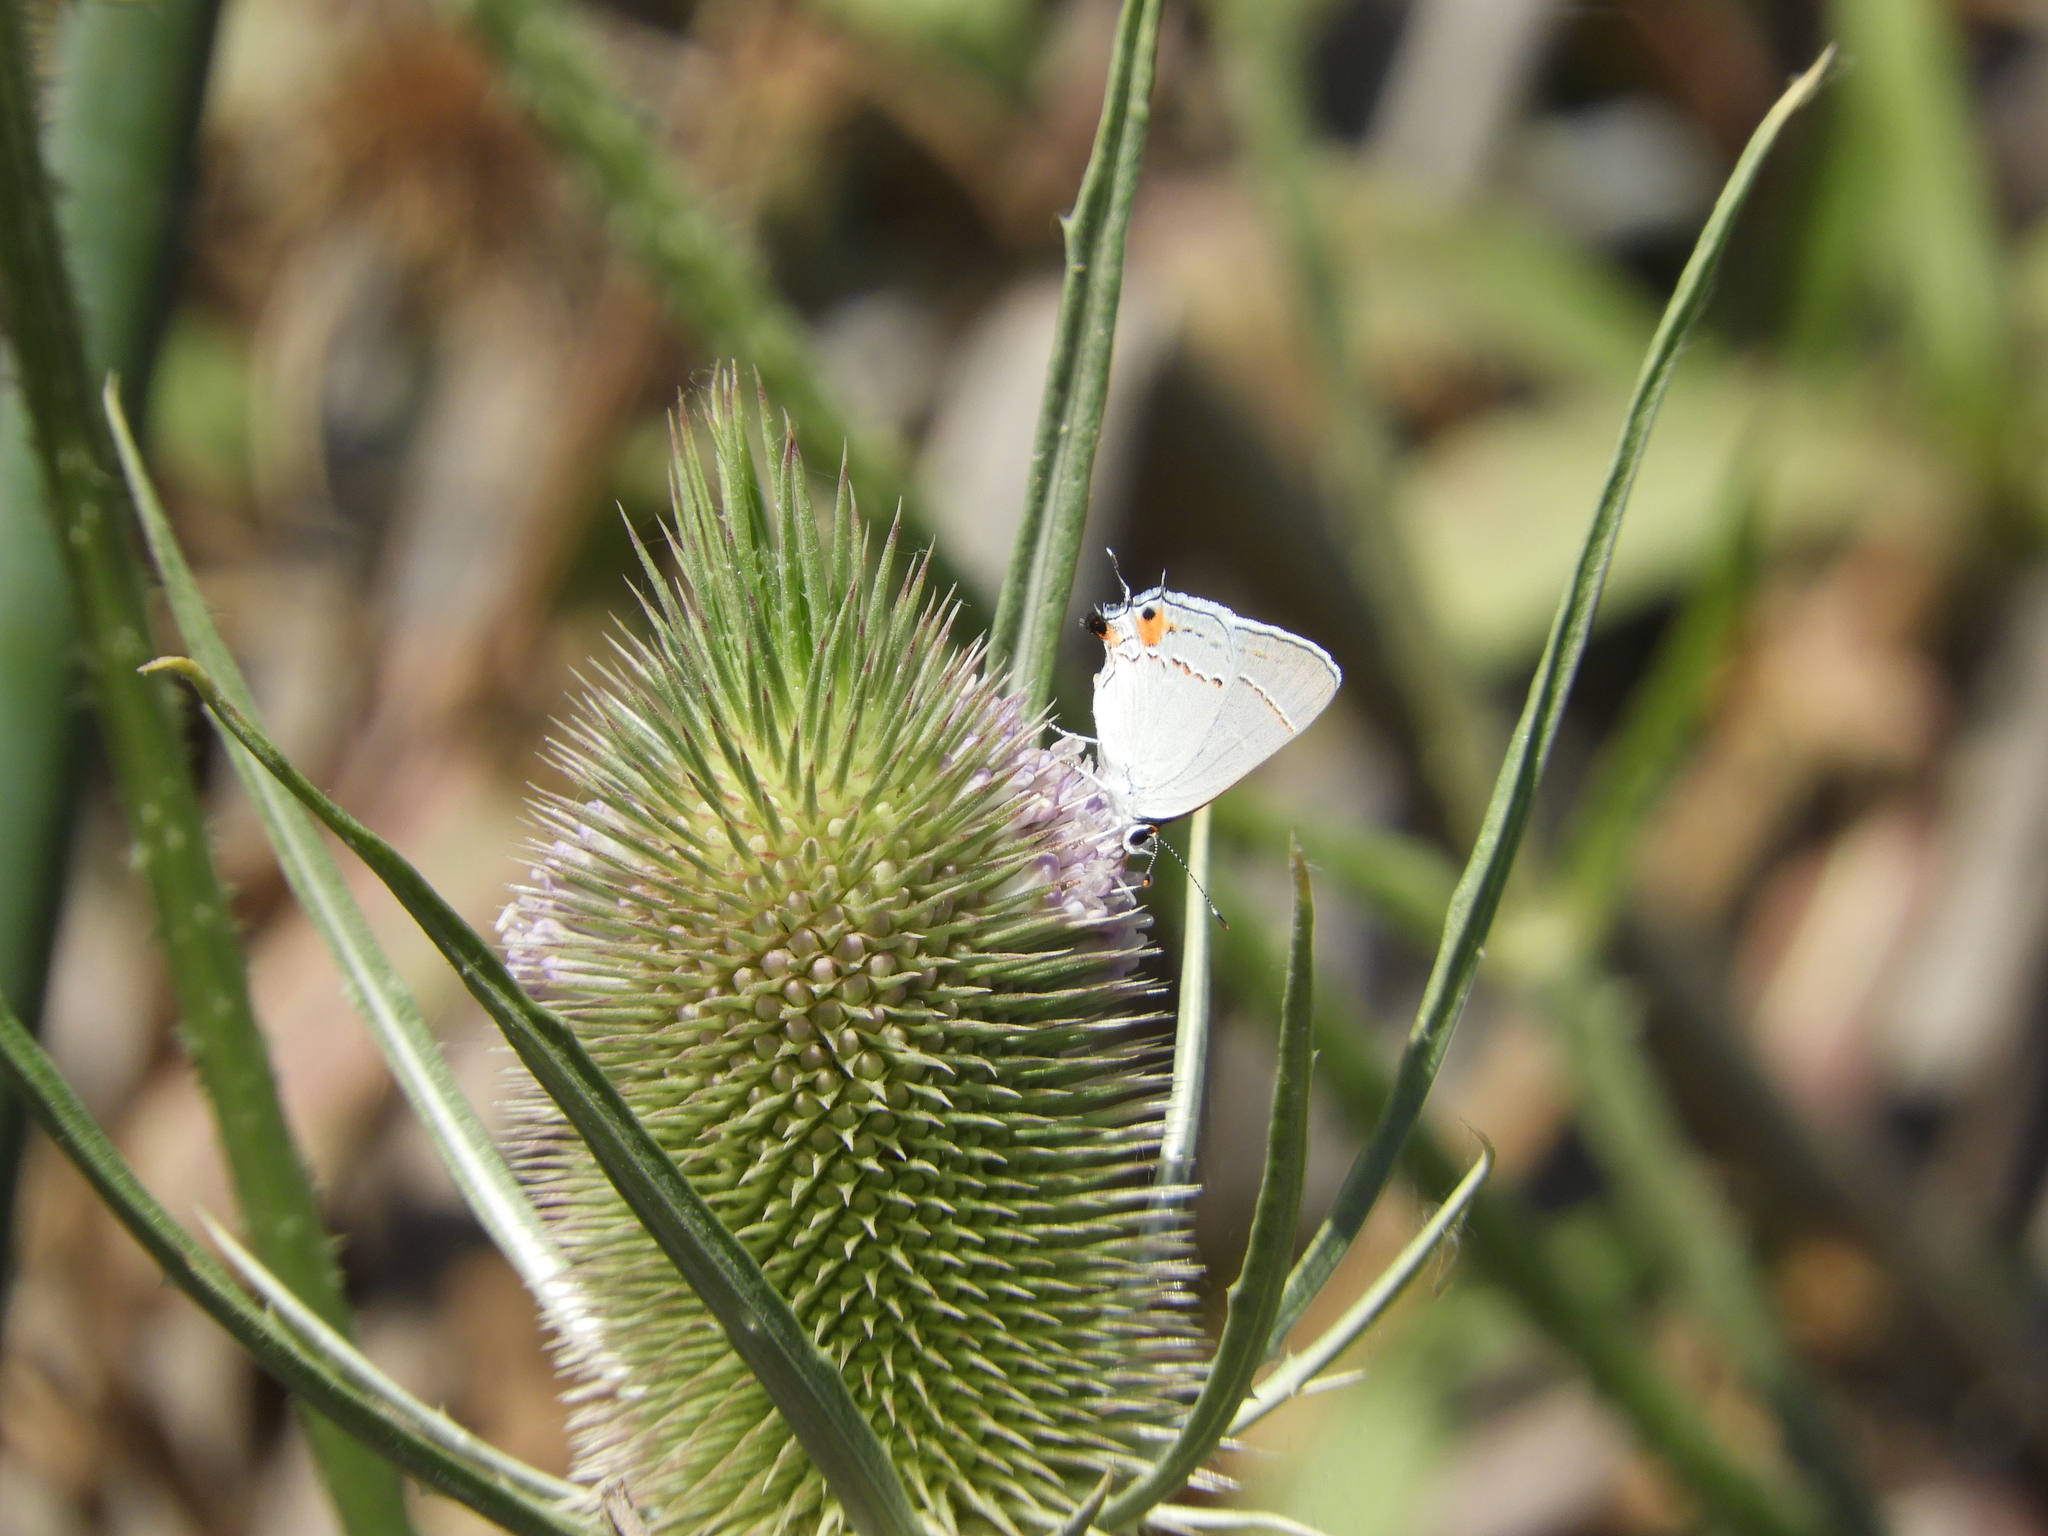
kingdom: Animalia
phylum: Arthropoda
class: Insecta
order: Lepidoptera
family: Lycaenidae
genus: Strymon
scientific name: Strymon melinus
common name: Gray hairstreak
